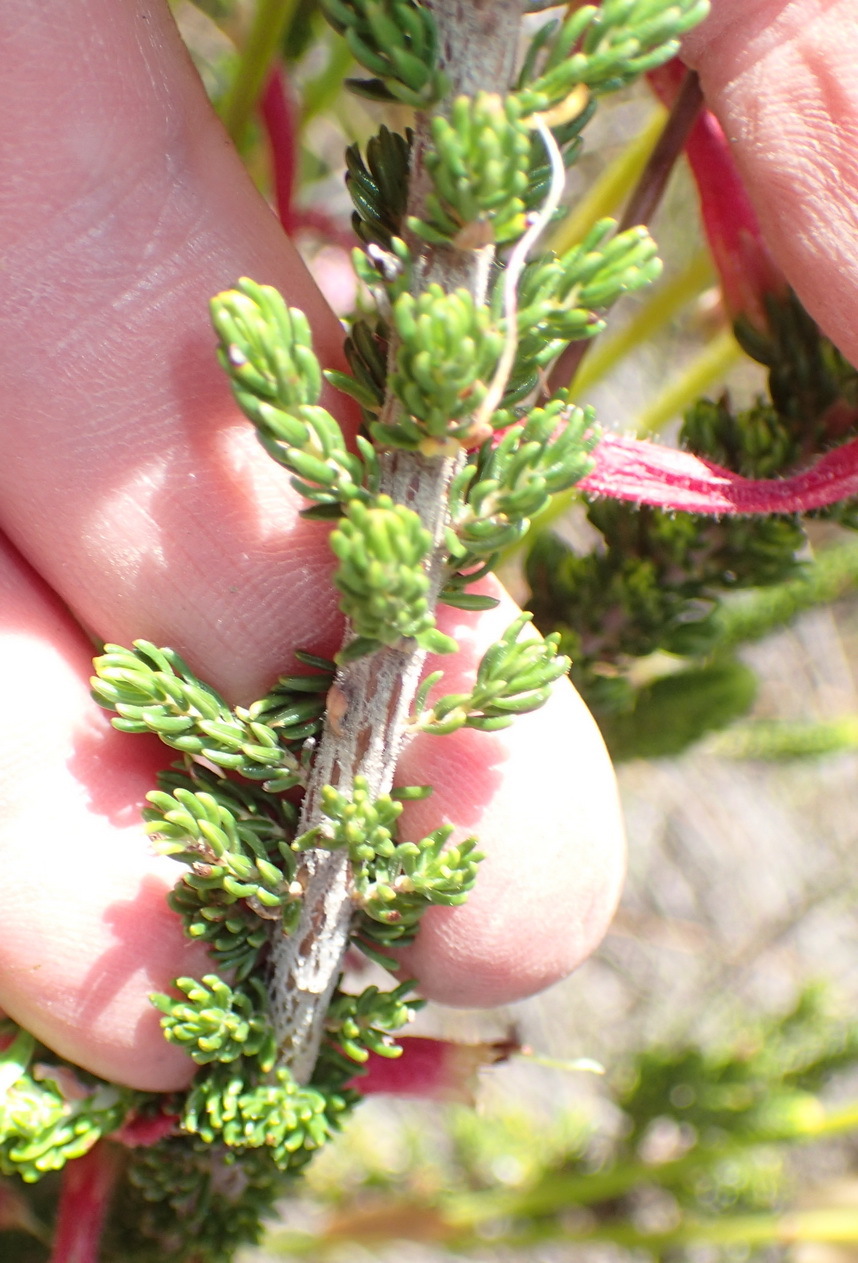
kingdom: Plantae
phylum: Tracheophyta
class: Magnoliopsida
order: Ericales
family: Ericaceae
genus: Erica
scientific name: Erica densifolia
